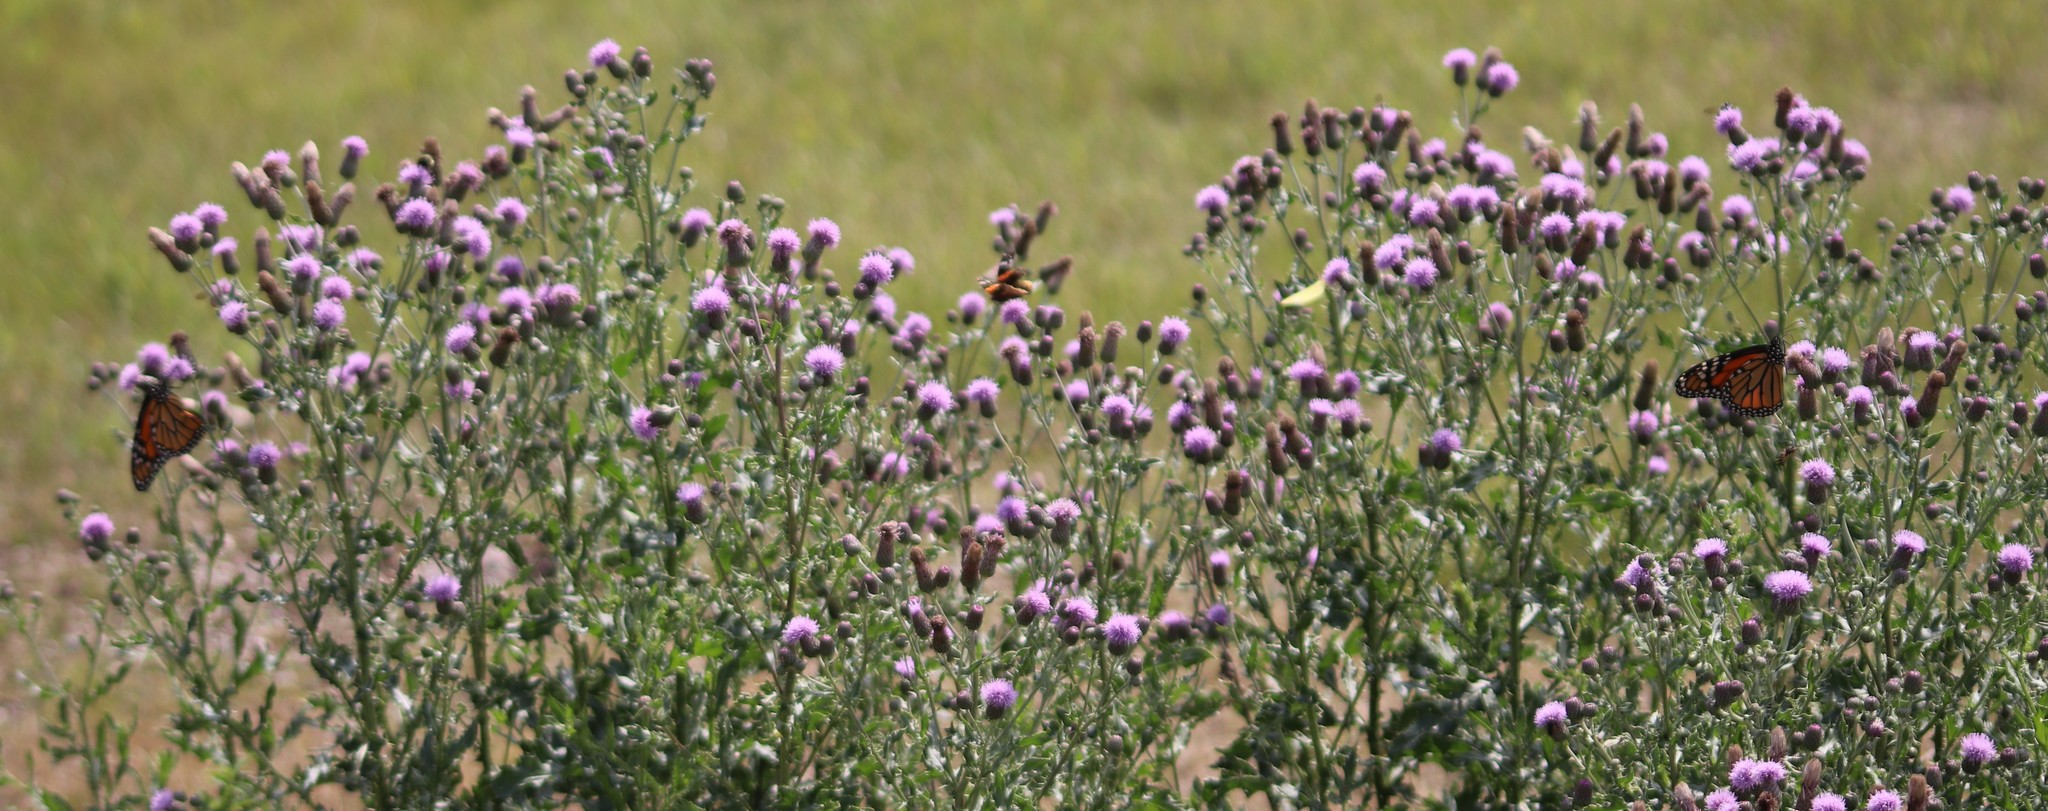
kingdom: Animalia
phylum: Arthropoda
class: Insecta
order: Lepidoptera
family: Nymphalidae
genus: Danaus
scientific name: Danaus plexippus
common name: Monarch
